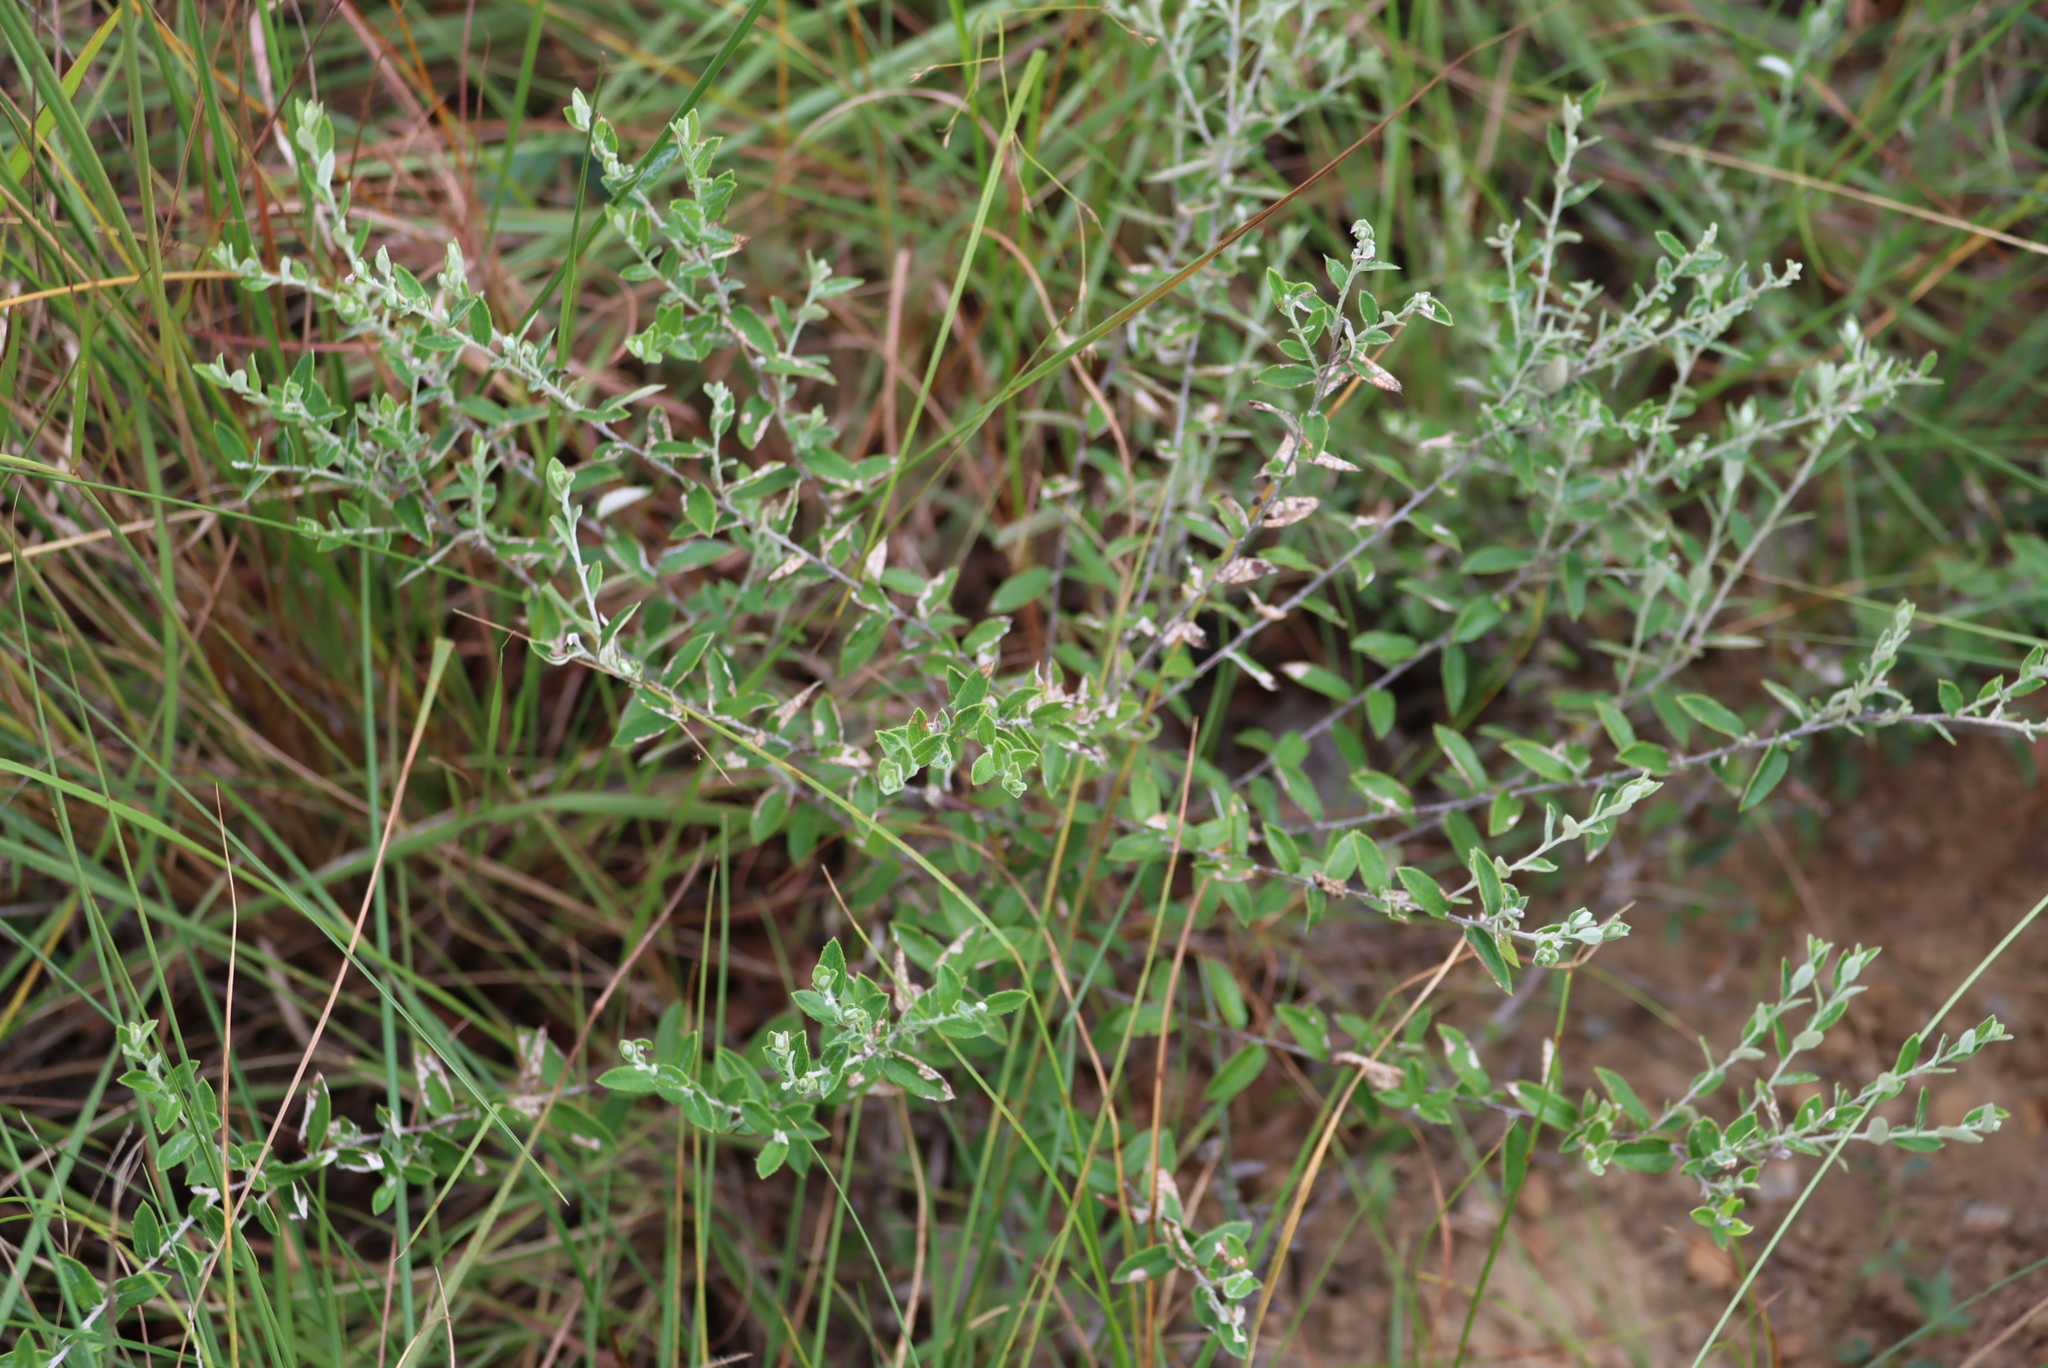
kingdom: Plantae
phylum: Tracheophyta
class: Magnoliopsida
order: Asterales
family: Asteraceae
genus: Athrixia
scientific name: Athrixia phylicoides
